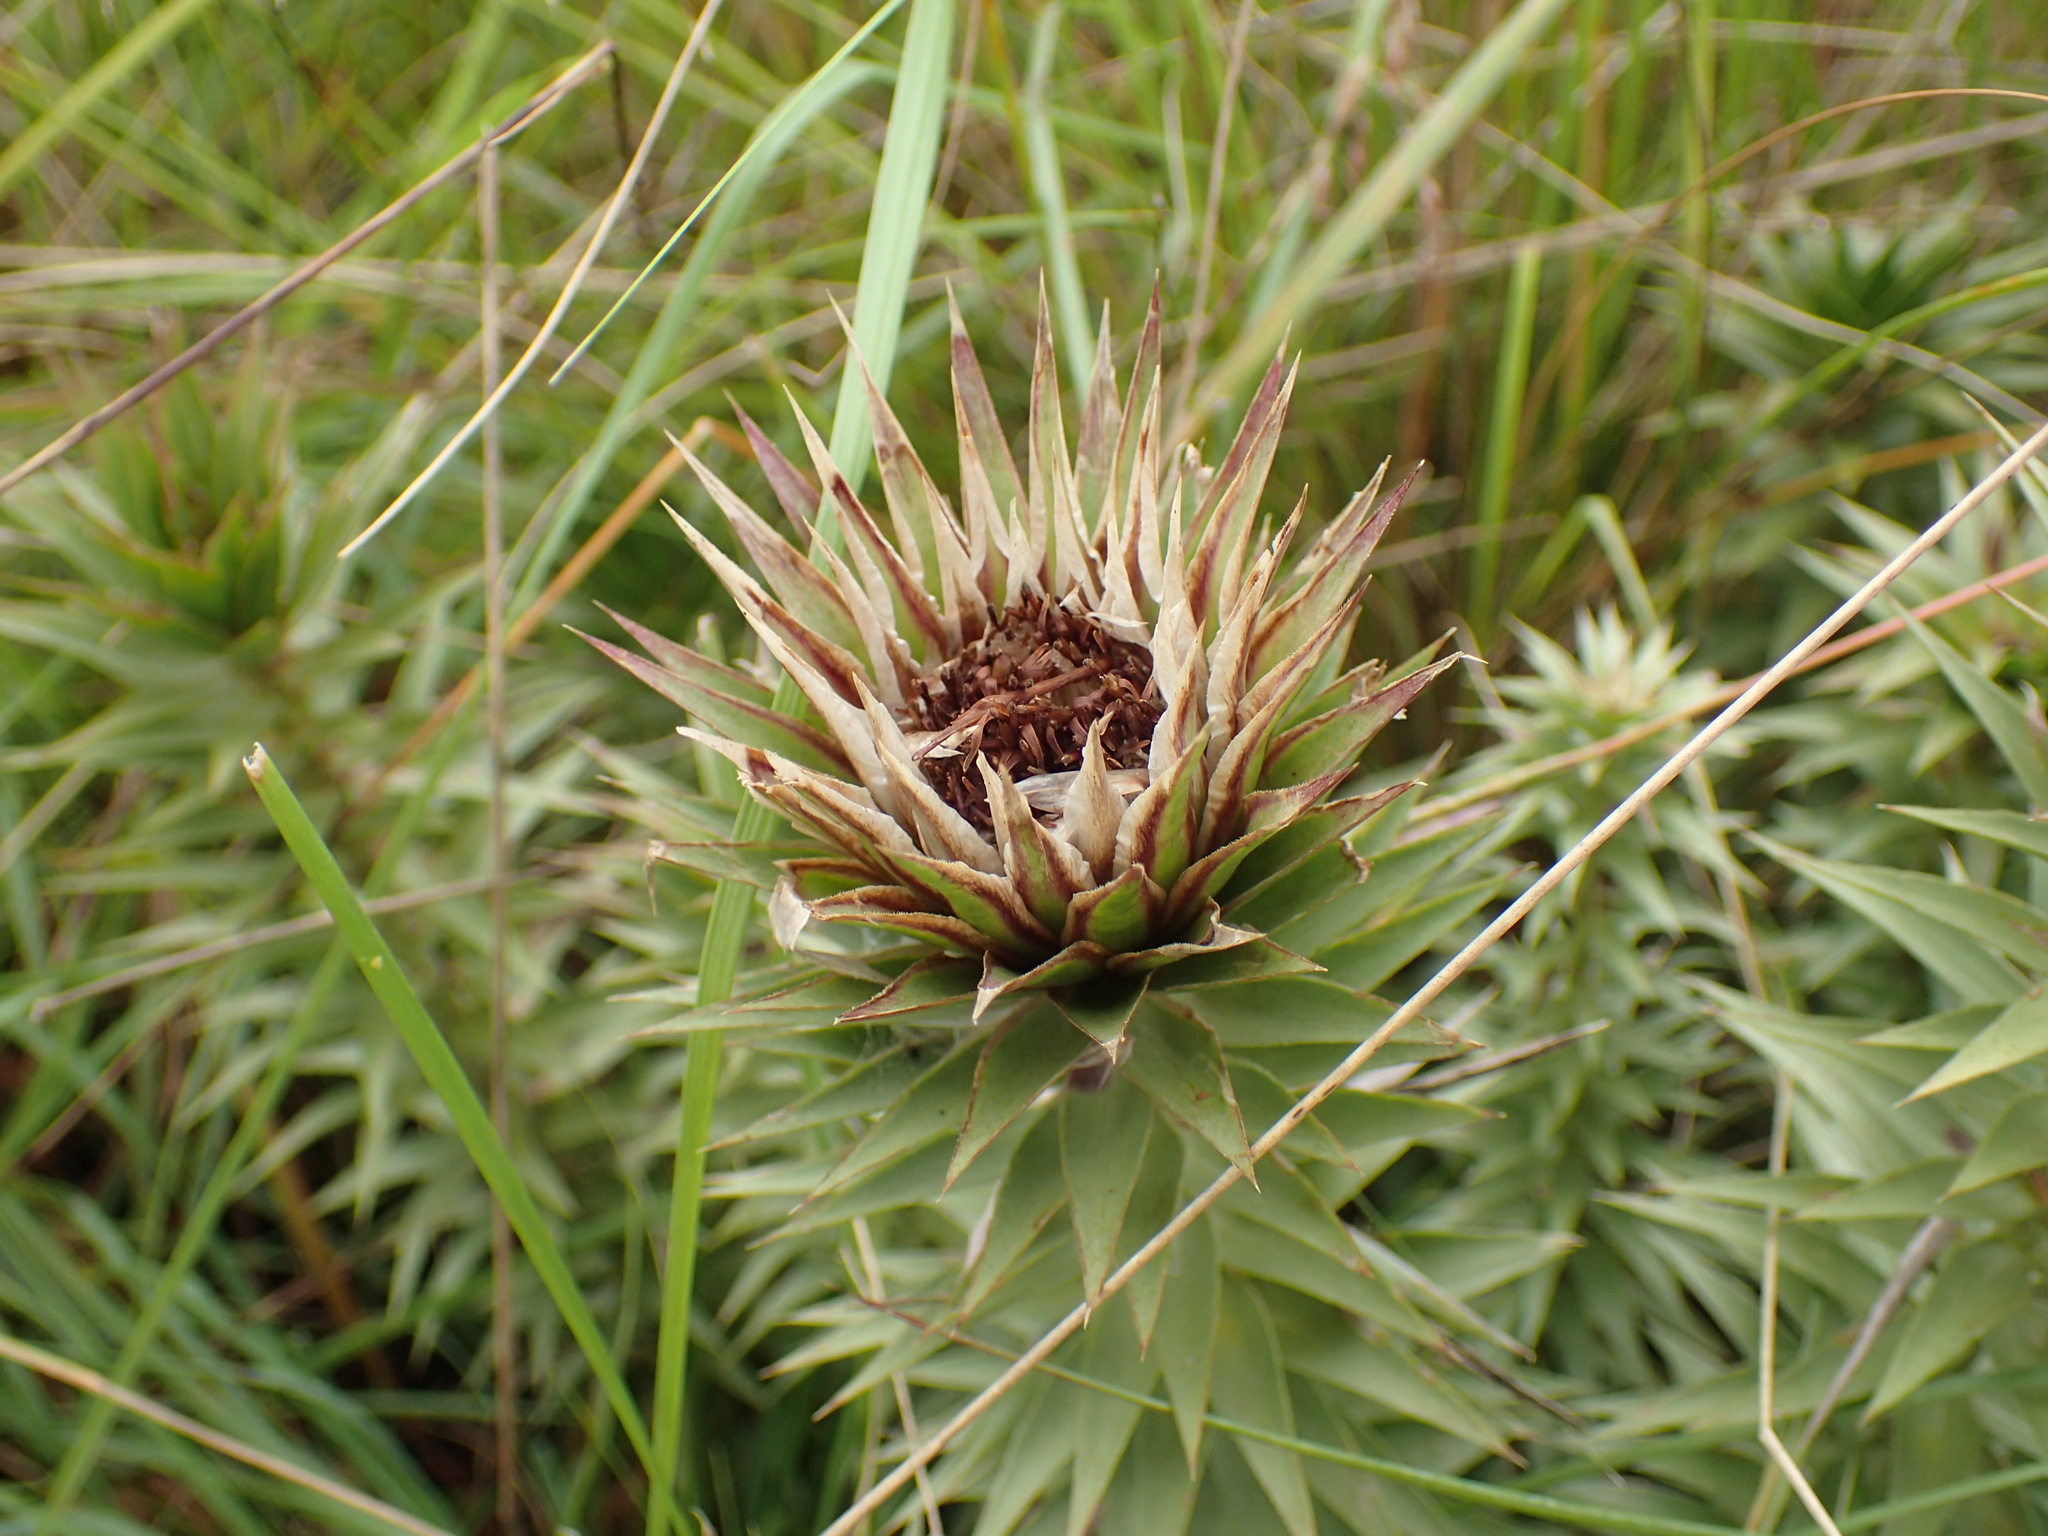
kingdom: Plantae
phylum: Tracheophyta
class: Magnoliopsida
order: Asterales
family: Asteraceae
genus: Macledium
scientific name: Macledium zeyheri
